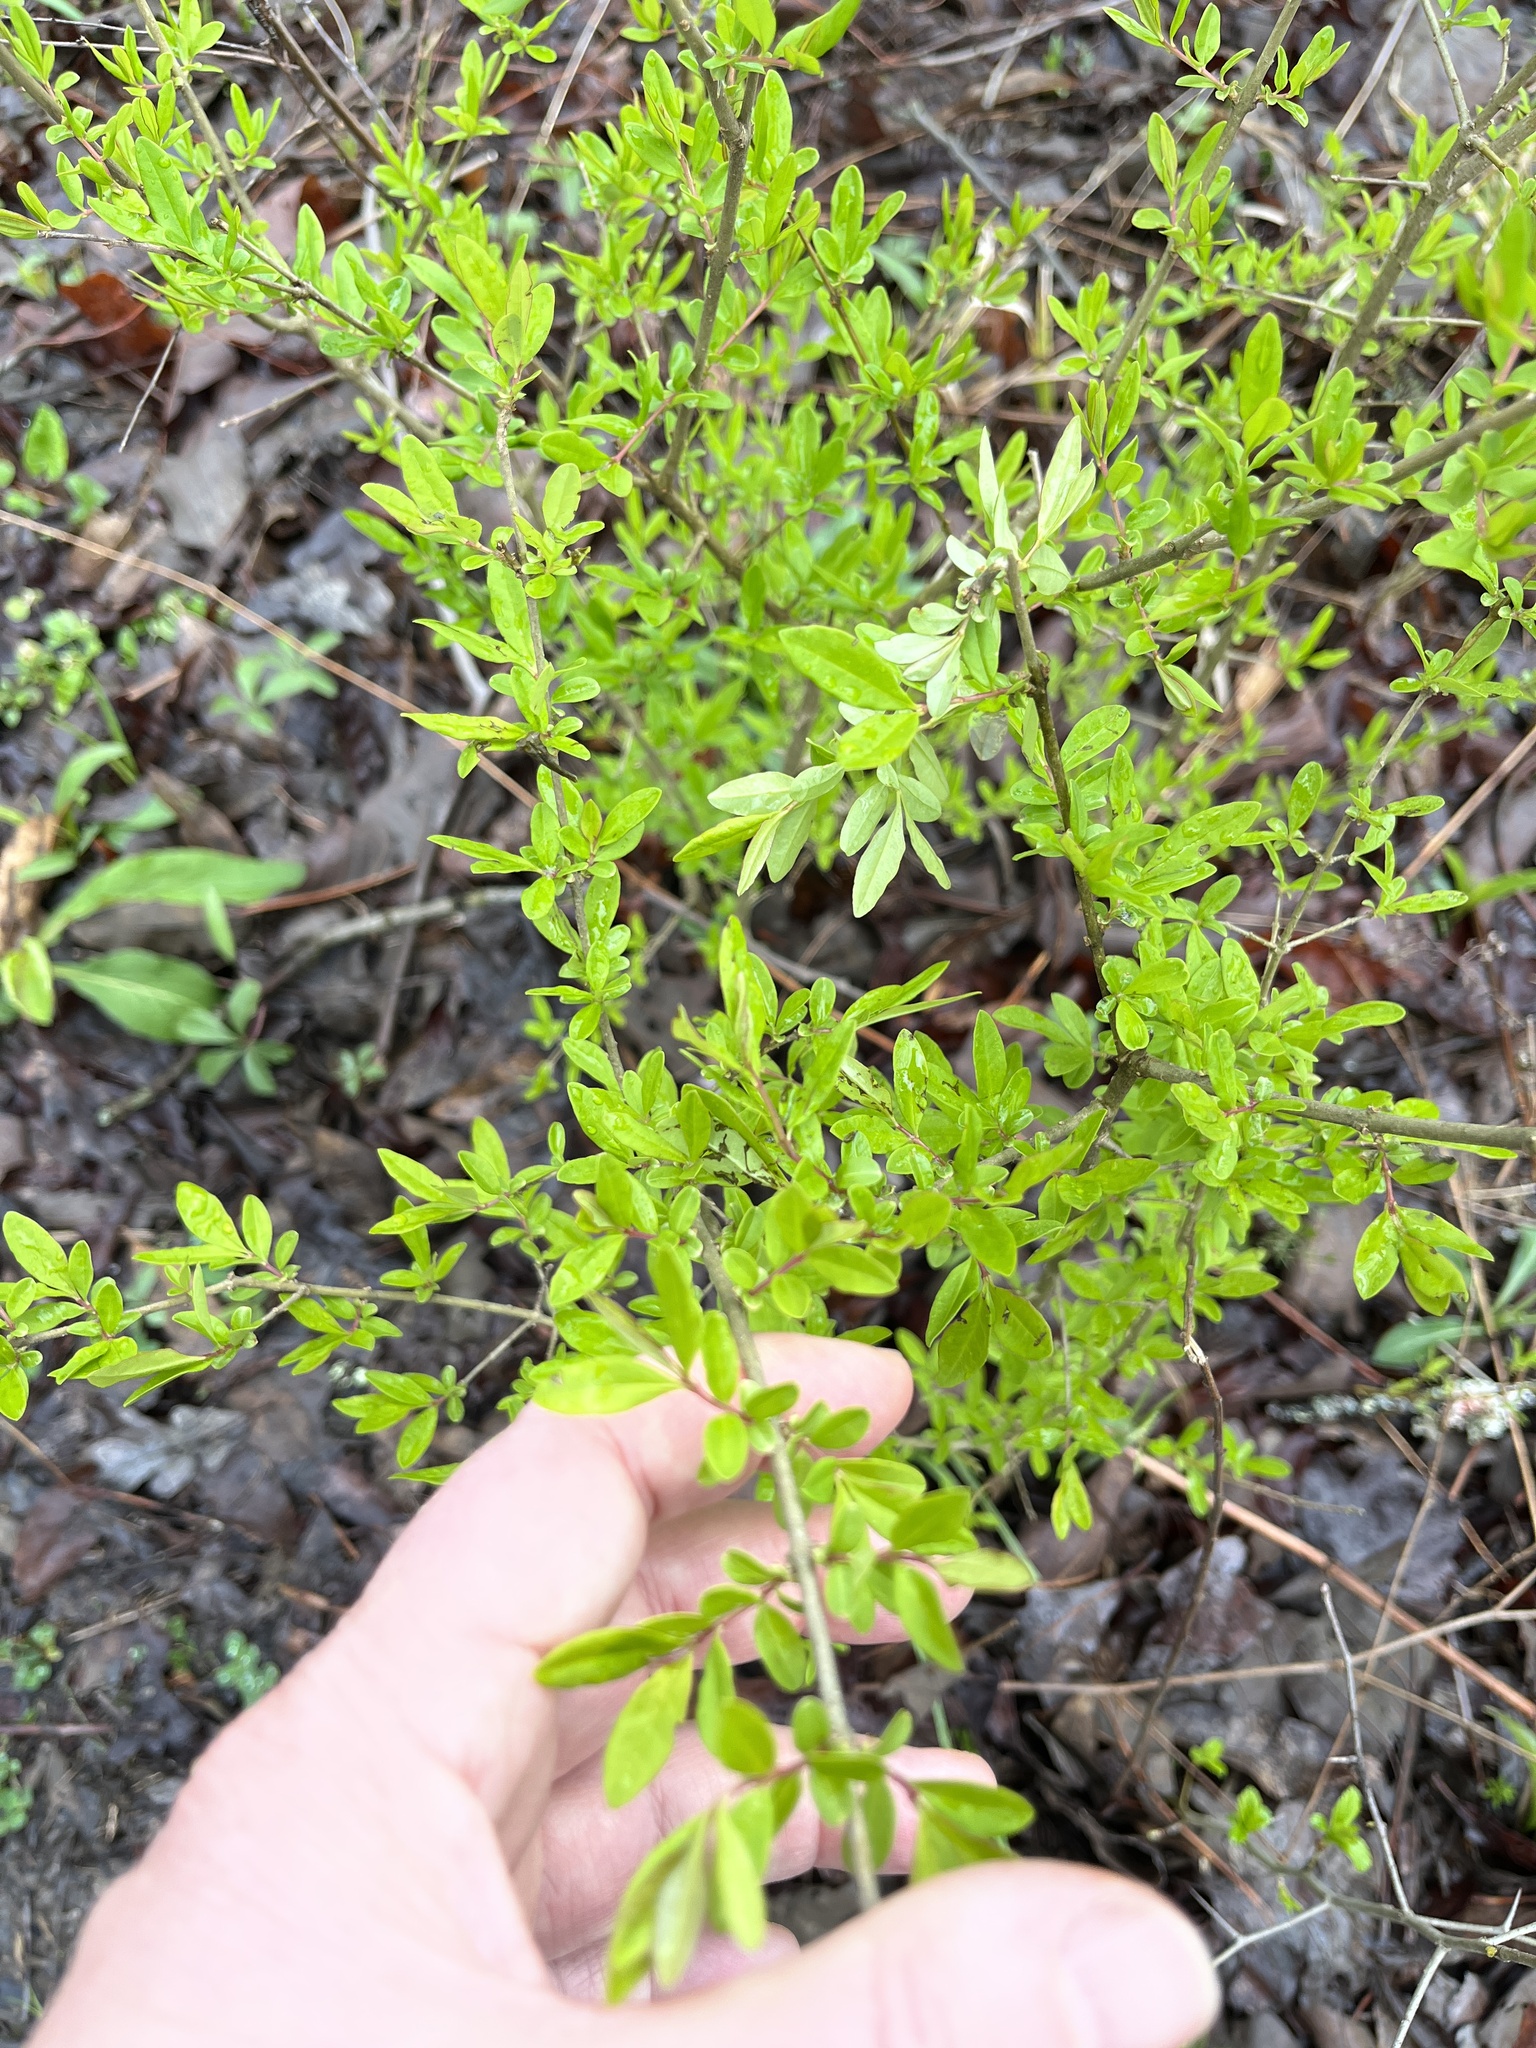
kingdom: Plantae
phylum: Tracheophyta
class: Magnoliopsida
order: Lamiales
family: Oleaceae
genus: Ligustrum
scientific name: Ligustrum obtusifolium
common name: Border privet
